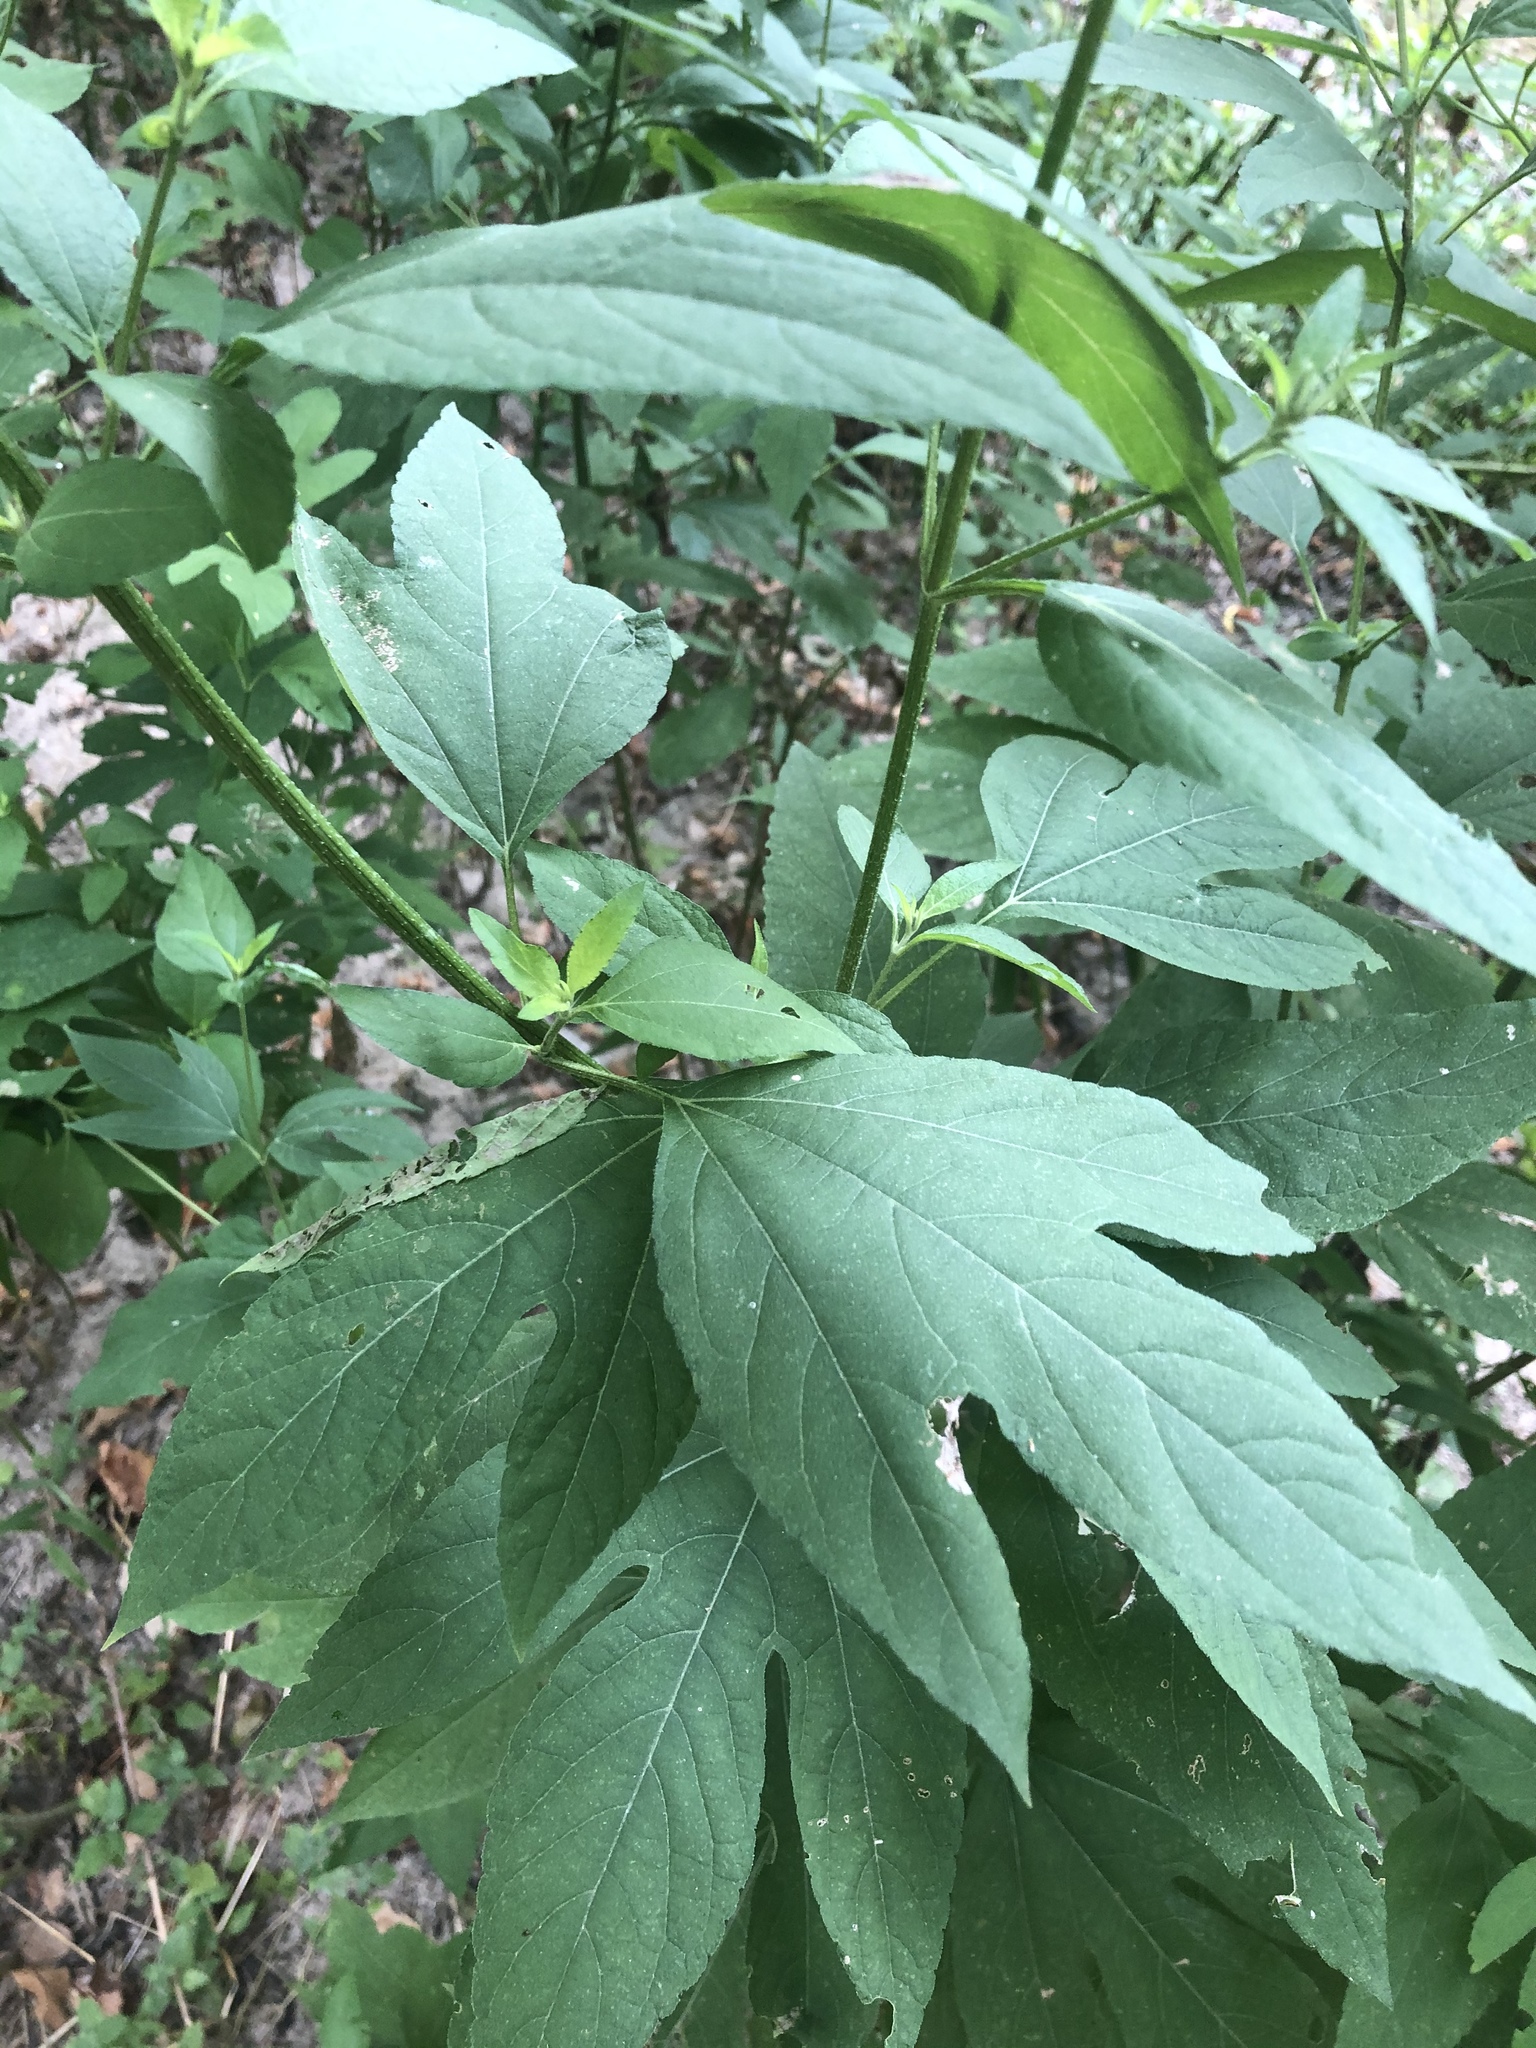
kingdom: Plantae
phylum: Tracheophyta
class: Magnoliopsida
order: Asterales
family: Asteraceae
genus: Ambrosia
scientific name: Ambrosia trifida
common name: Giant ragweed
